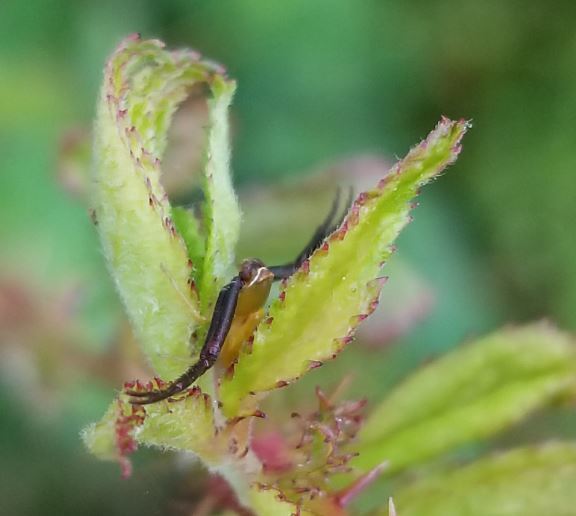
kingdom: Animalia
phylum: Arthropoda
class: Arachnida
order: Araneae
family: Thomisidae
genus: Misumenoides
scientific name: Misumenoides formosipes
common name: White-banded crab spider
